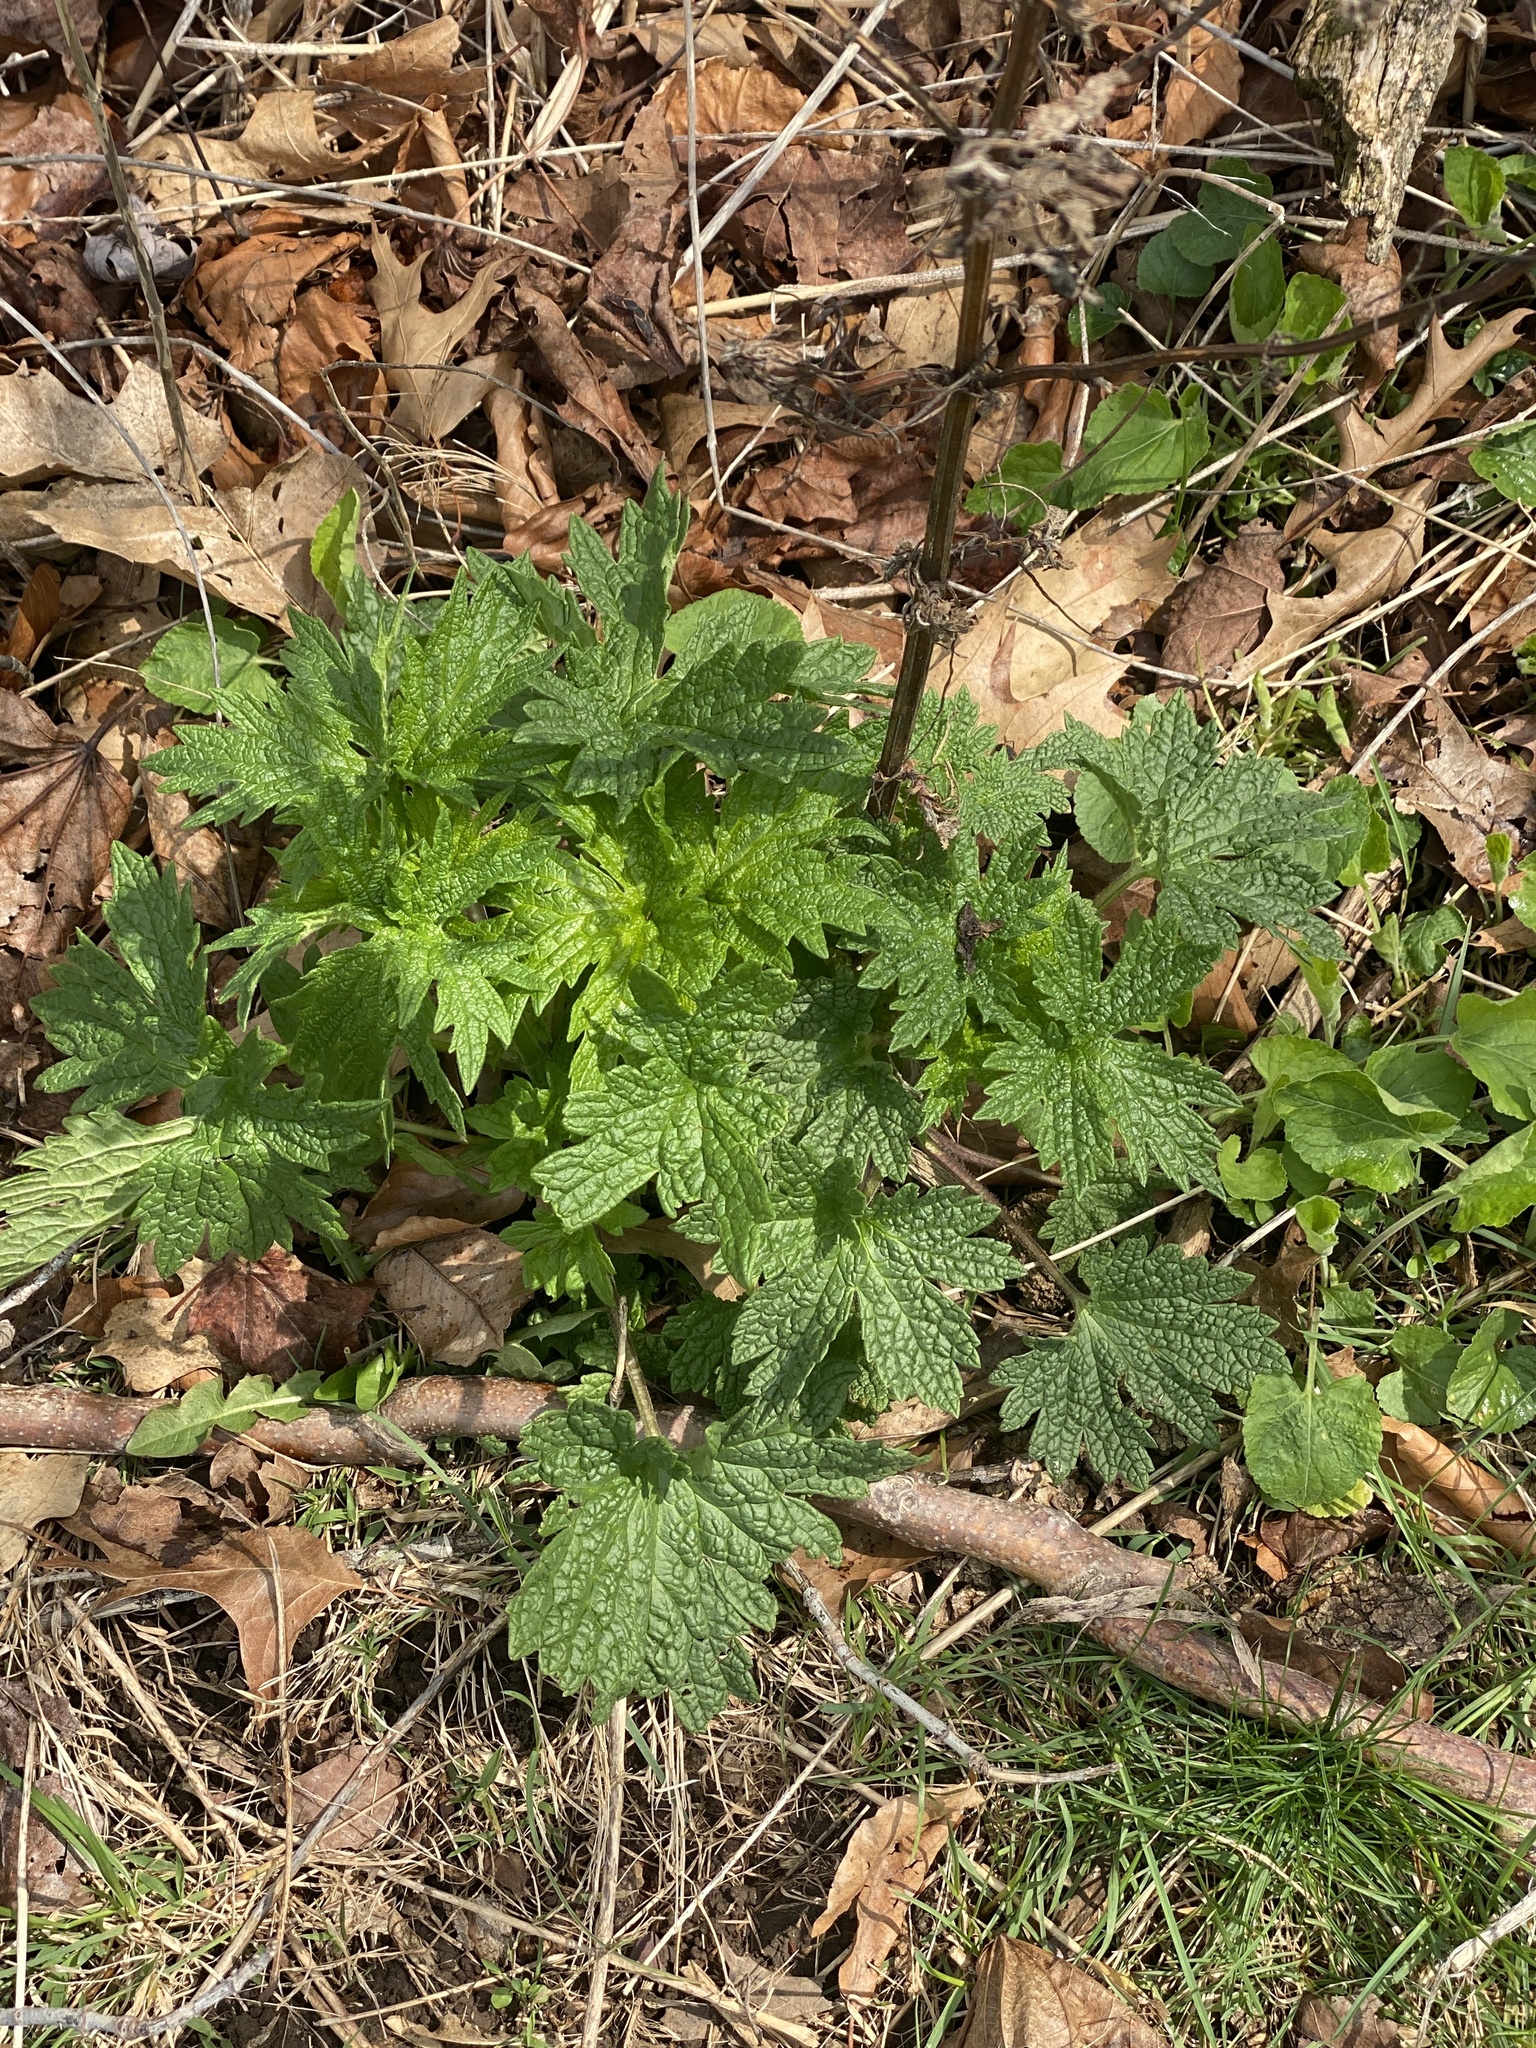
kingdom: Plantae
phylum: Tracheophyta
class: Magnoliopsida
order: Lamiales
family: Lamiaceae
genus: Leonurus
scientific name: Leonurus cardiaca
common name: Motherwort
